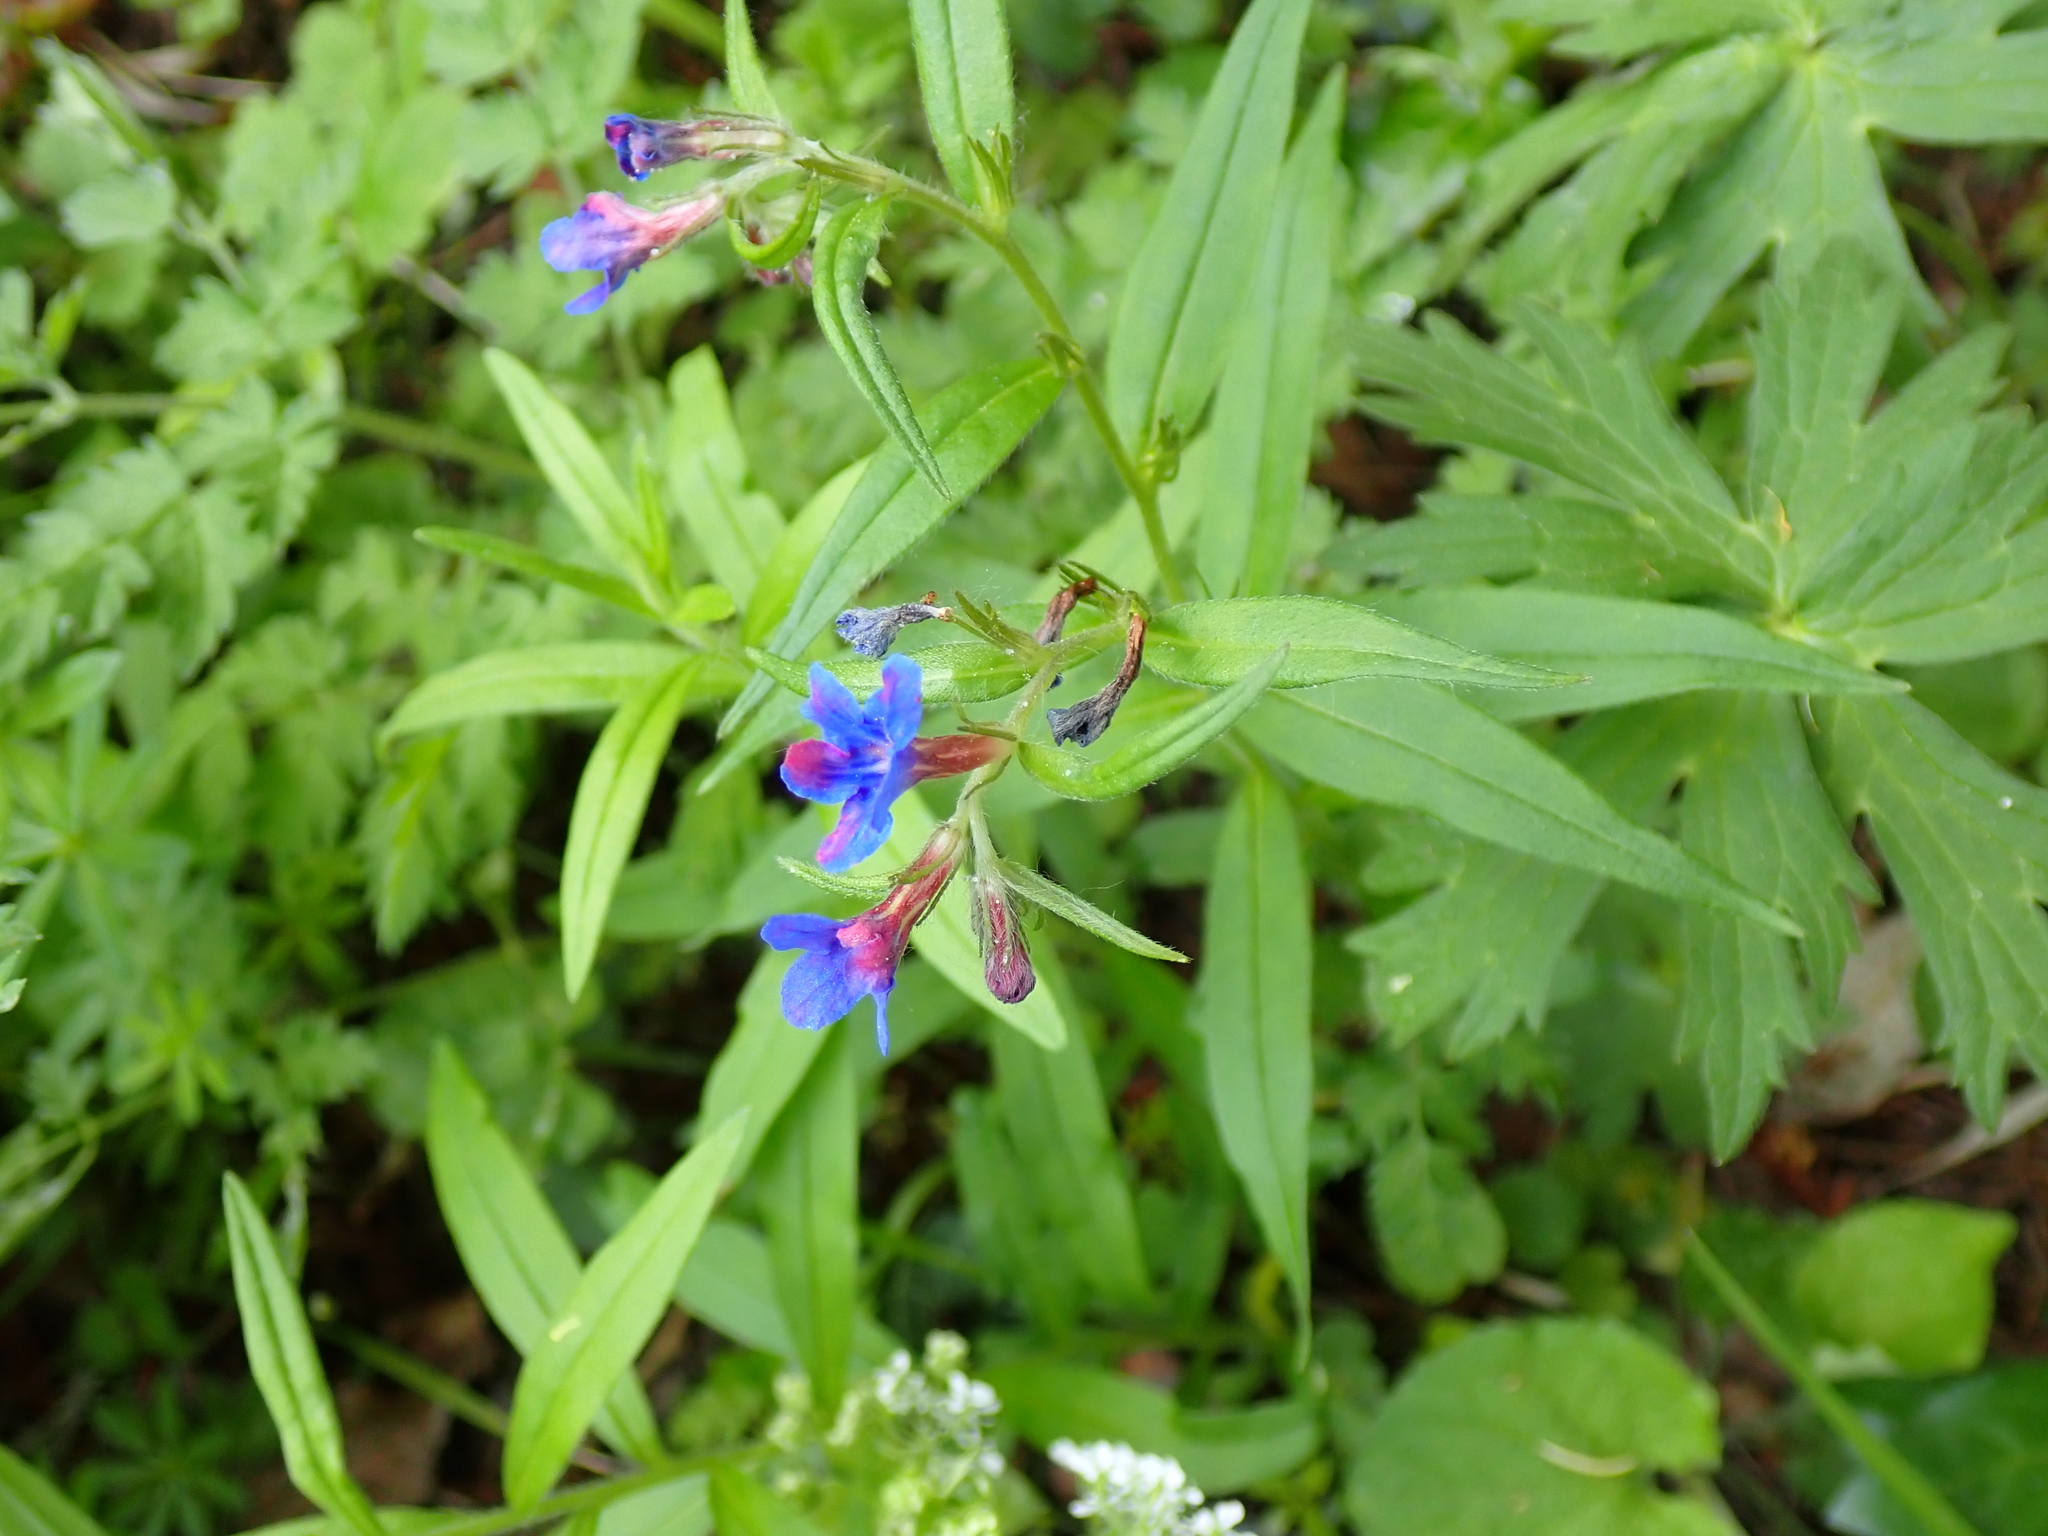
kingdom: Plantae
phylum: Tracheophyta
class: Magnoliopsida
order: Boraginales
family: Boraginaceae
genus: Aegonychon
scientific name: Aegonychon purpurocaeruleum
